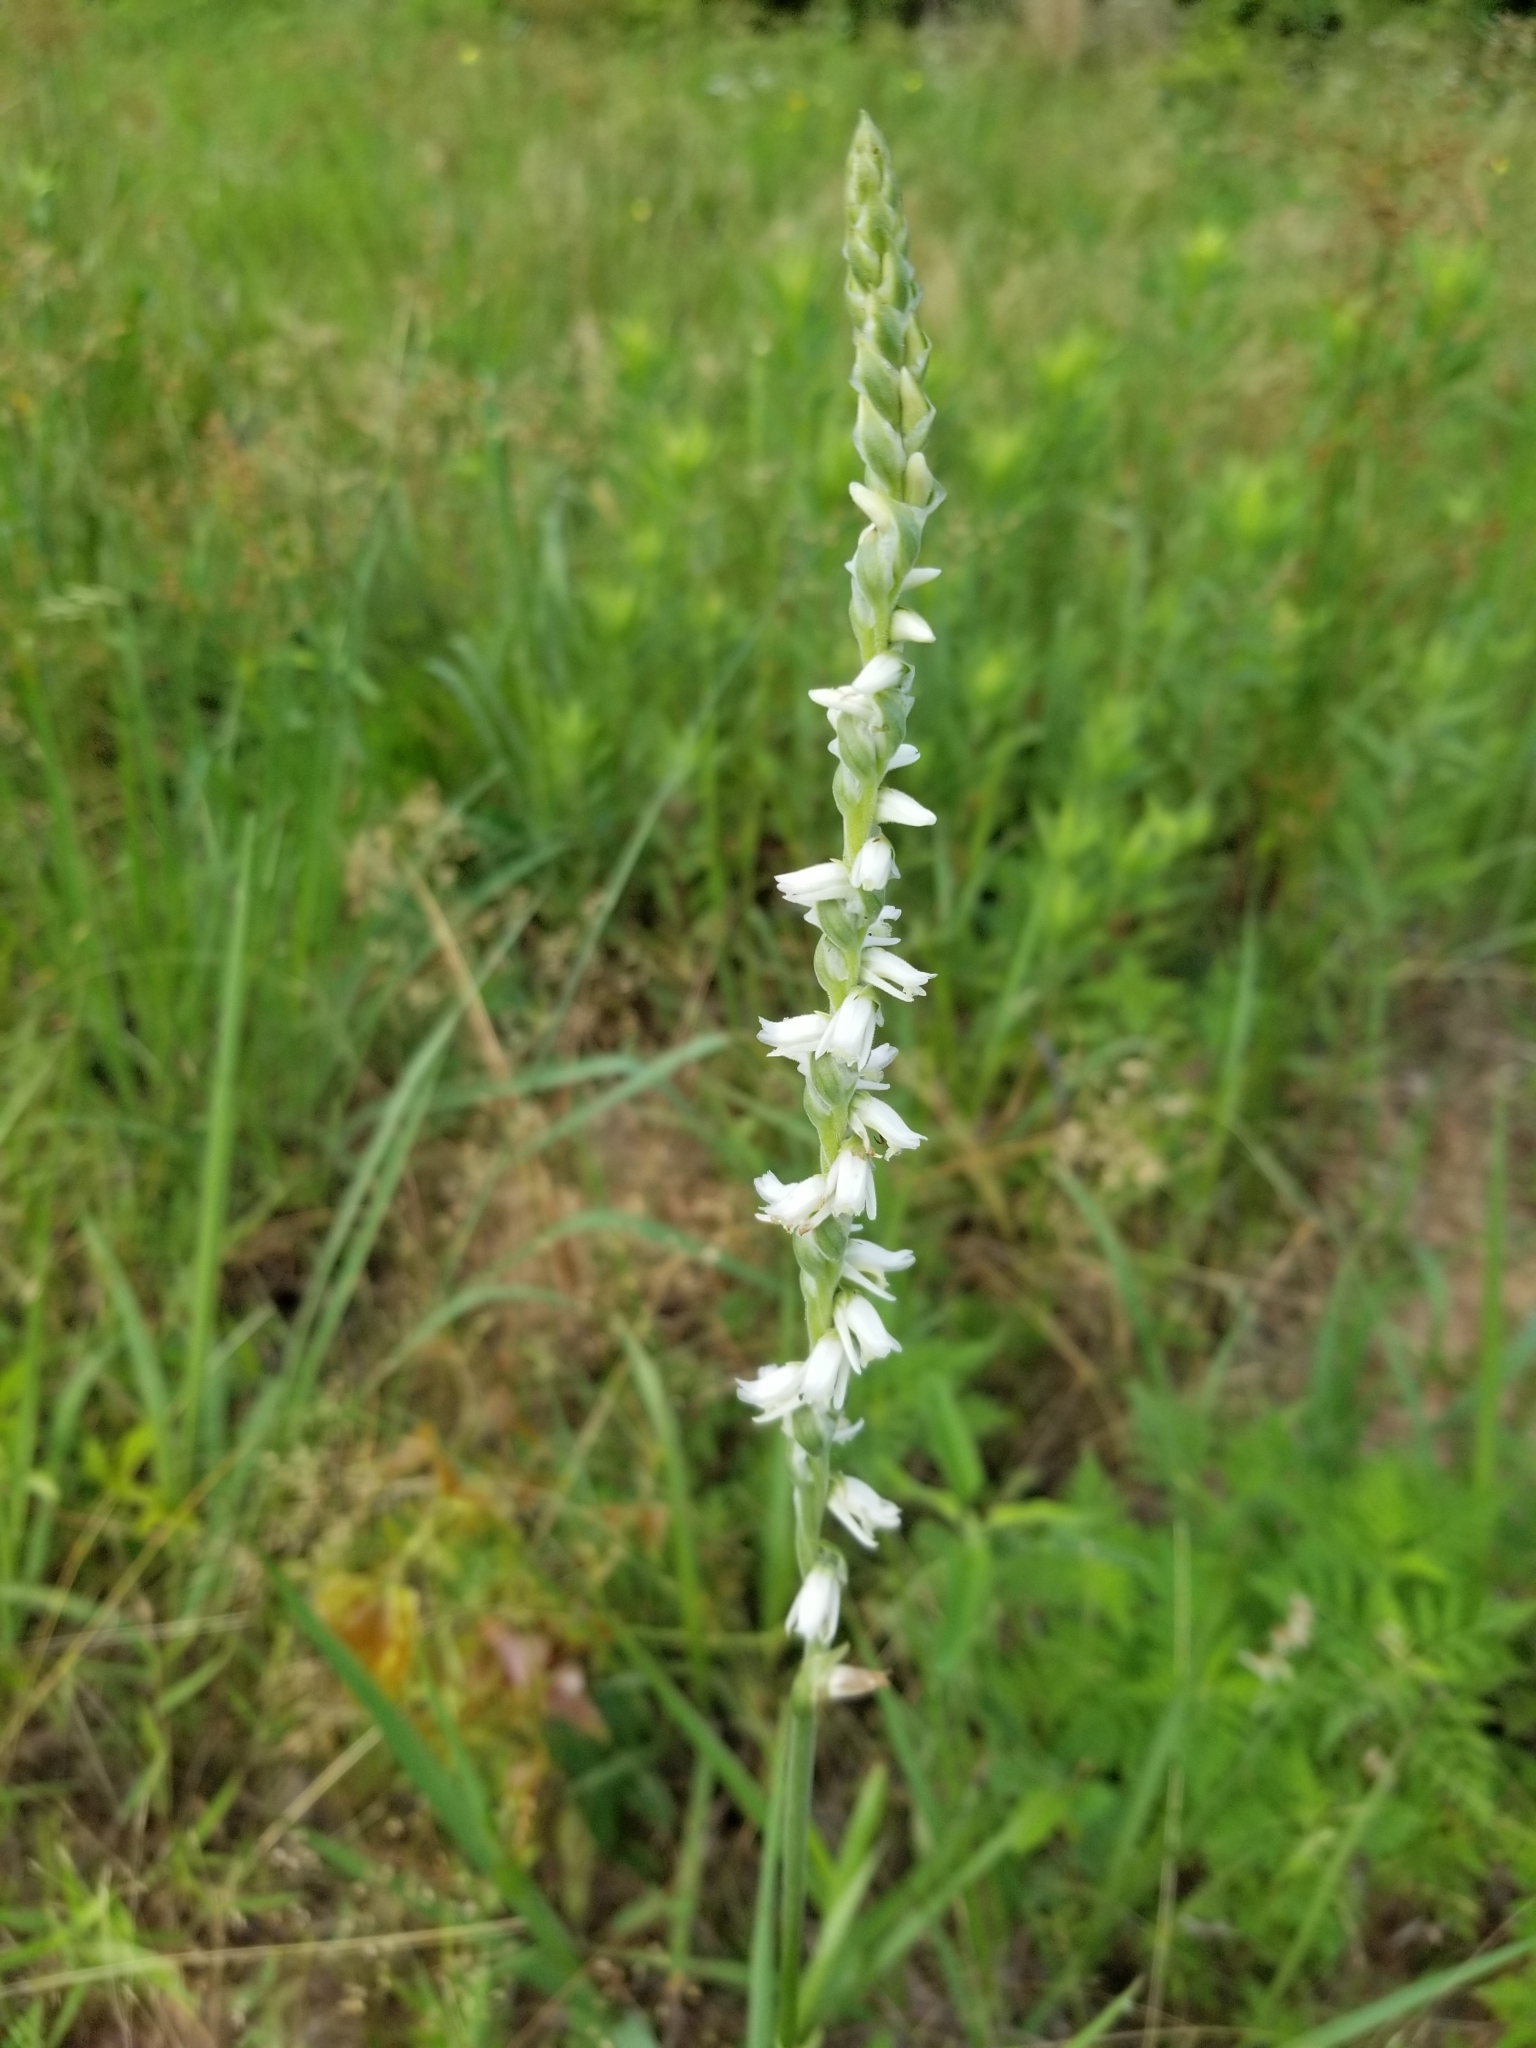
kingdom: Plantae
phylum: Tracheophyta
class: Liliopsida
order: Asparagales
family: Orchidaceae
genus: Spiranthes
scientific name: Spiranthes vernalis
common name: Spring ladies'-tresses
